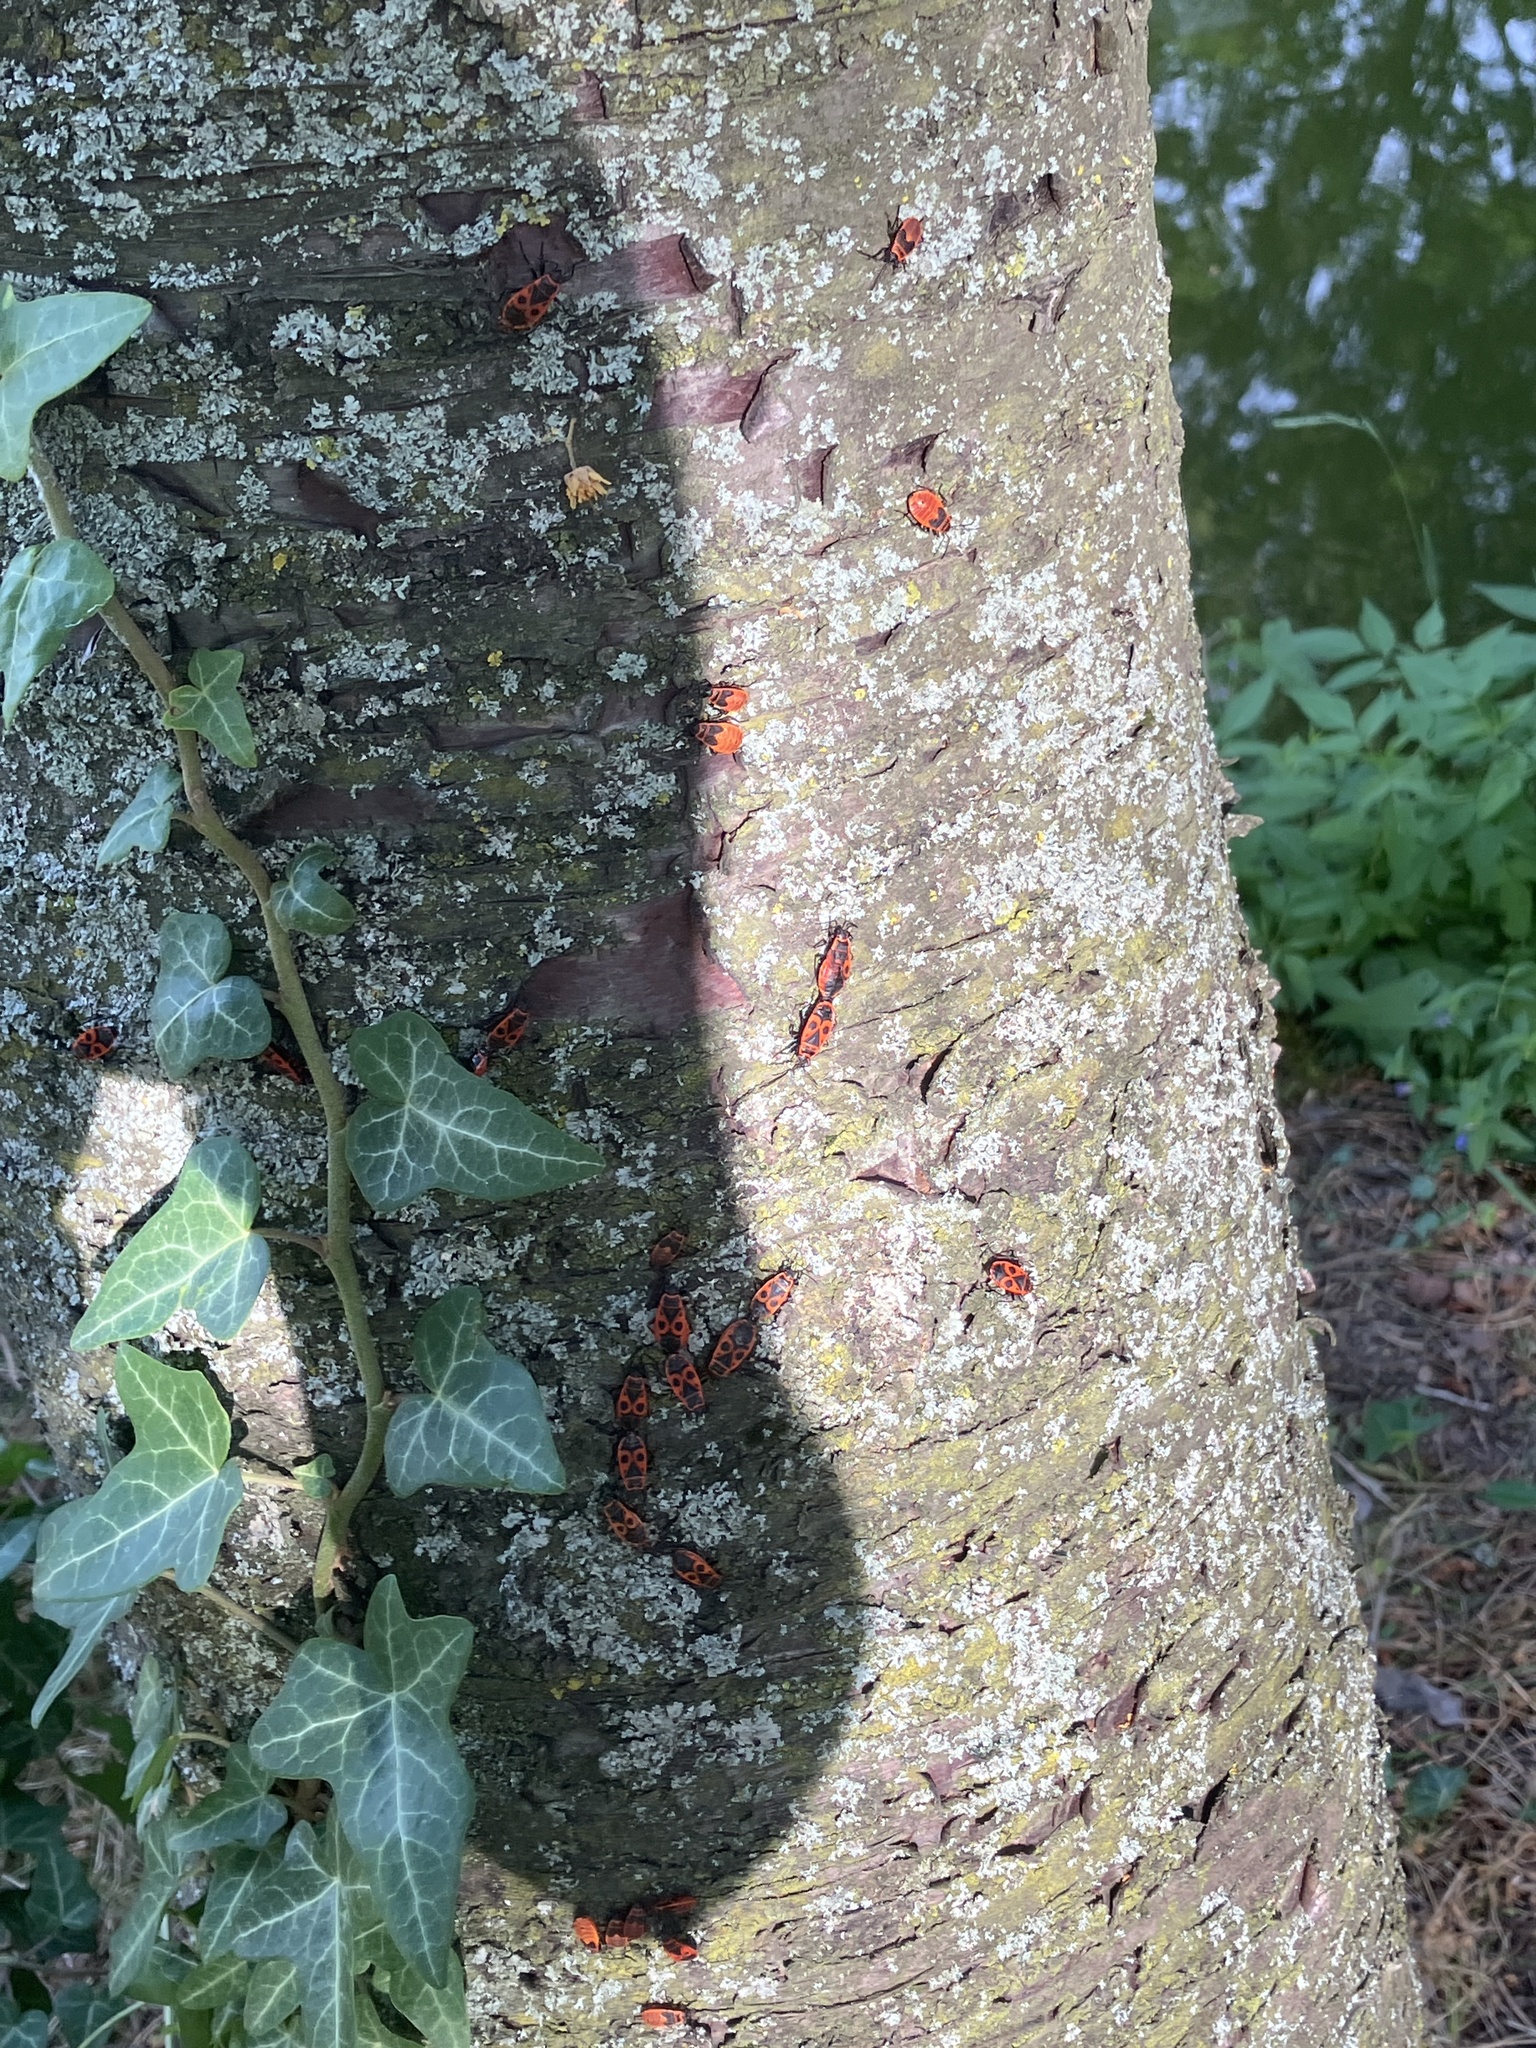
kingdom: Animalia
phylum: Arthropoda
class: Insecta
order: Hemiptera
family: Pyrrhocoridae
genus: Pyrrhocoris
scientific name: Pyrrhocoris apterus
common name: Firebug
